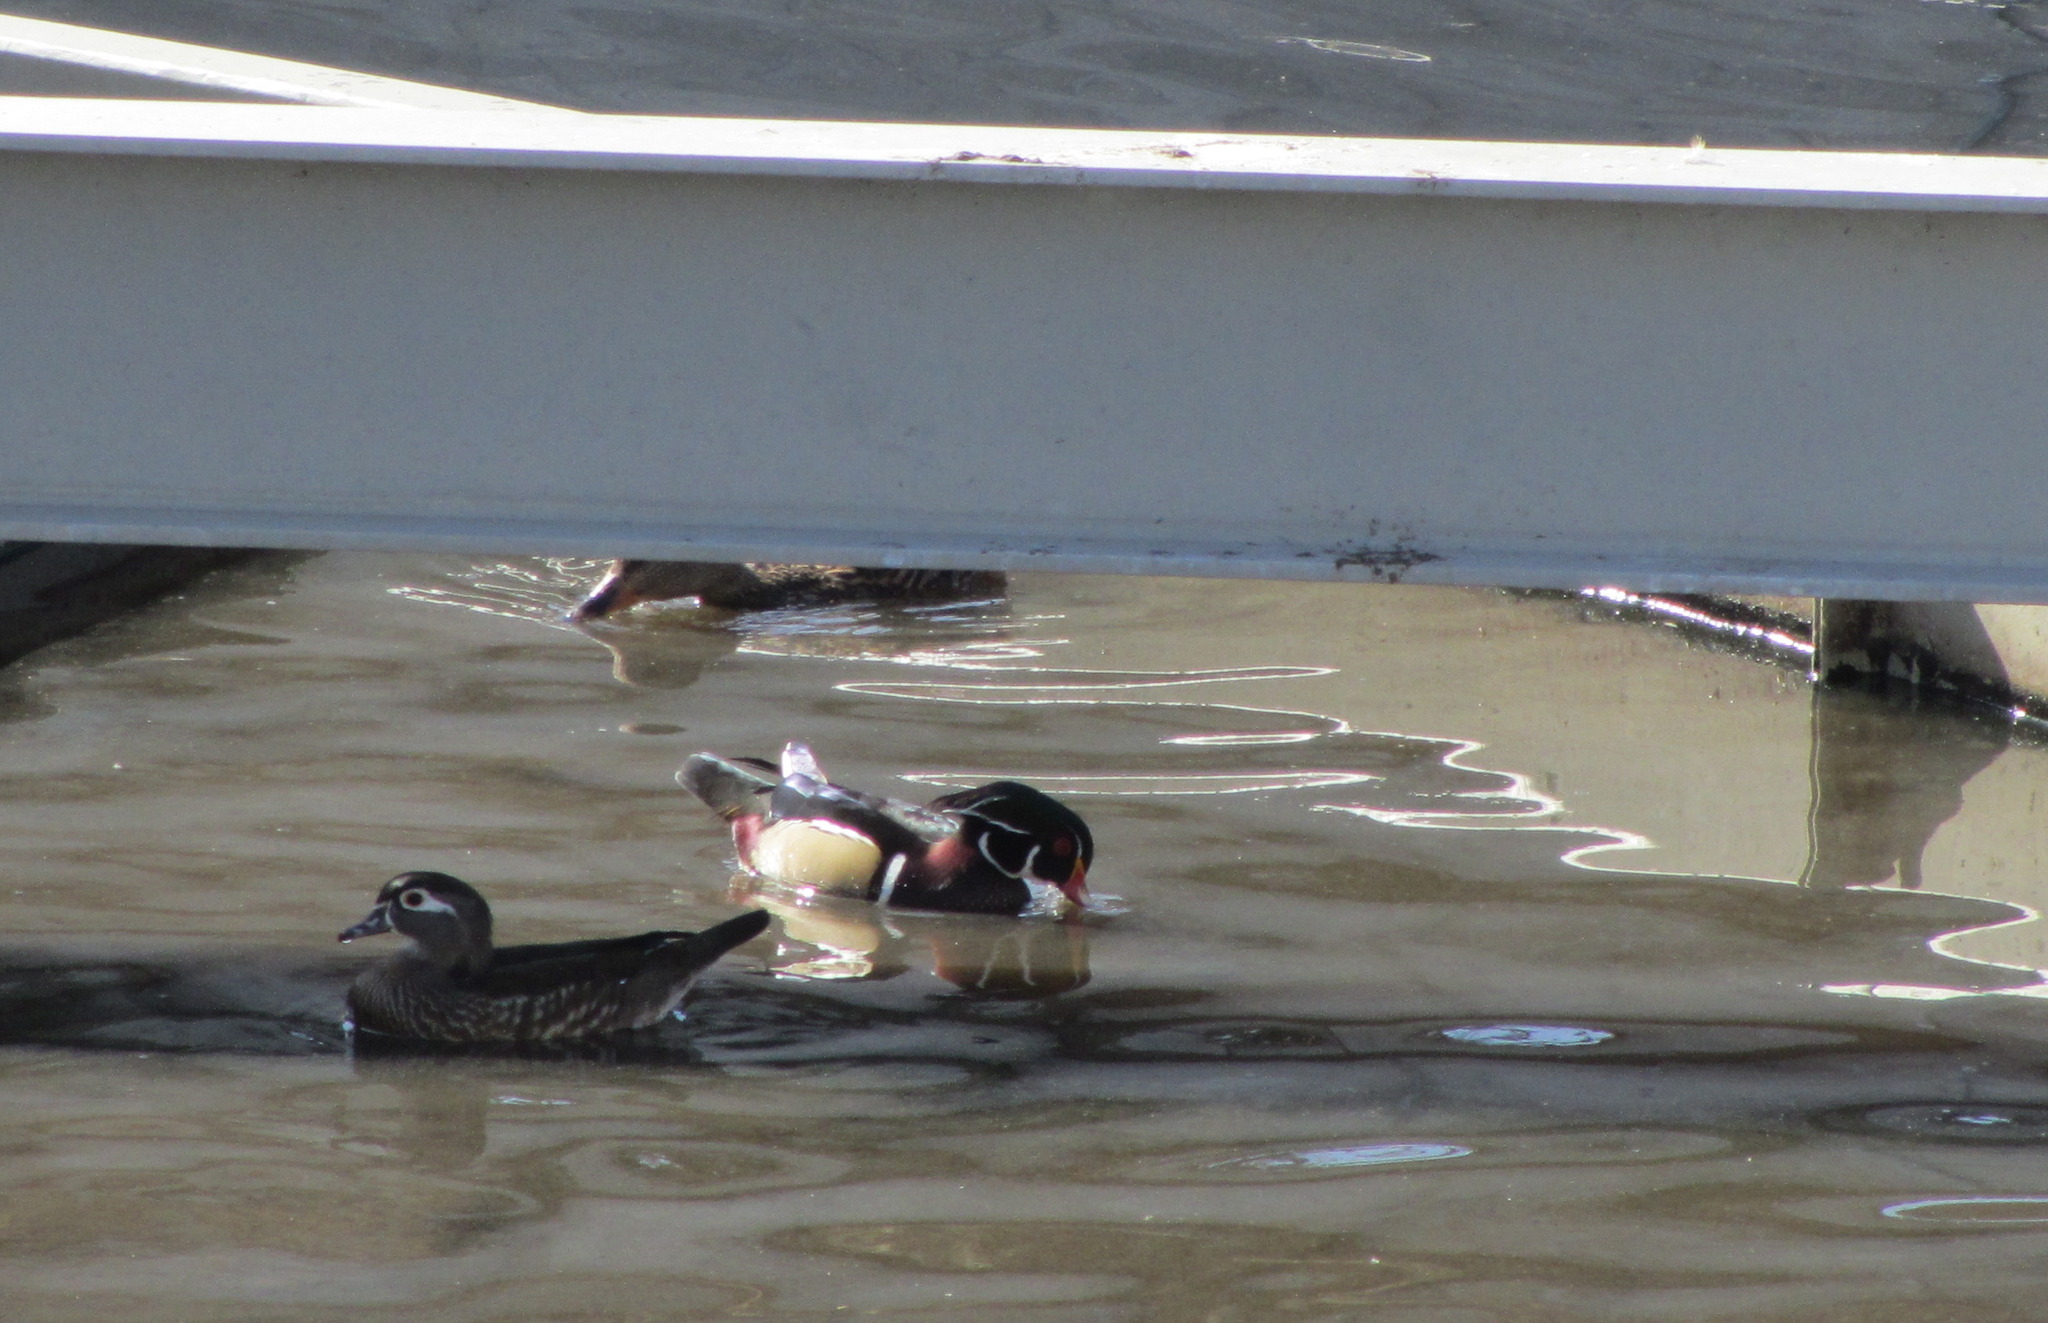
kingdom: Animalia
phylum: Chordata
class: Aves
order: Anseriformes
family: Anatidae
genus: Aix
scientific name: Aix sponsa
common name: Wood duck
